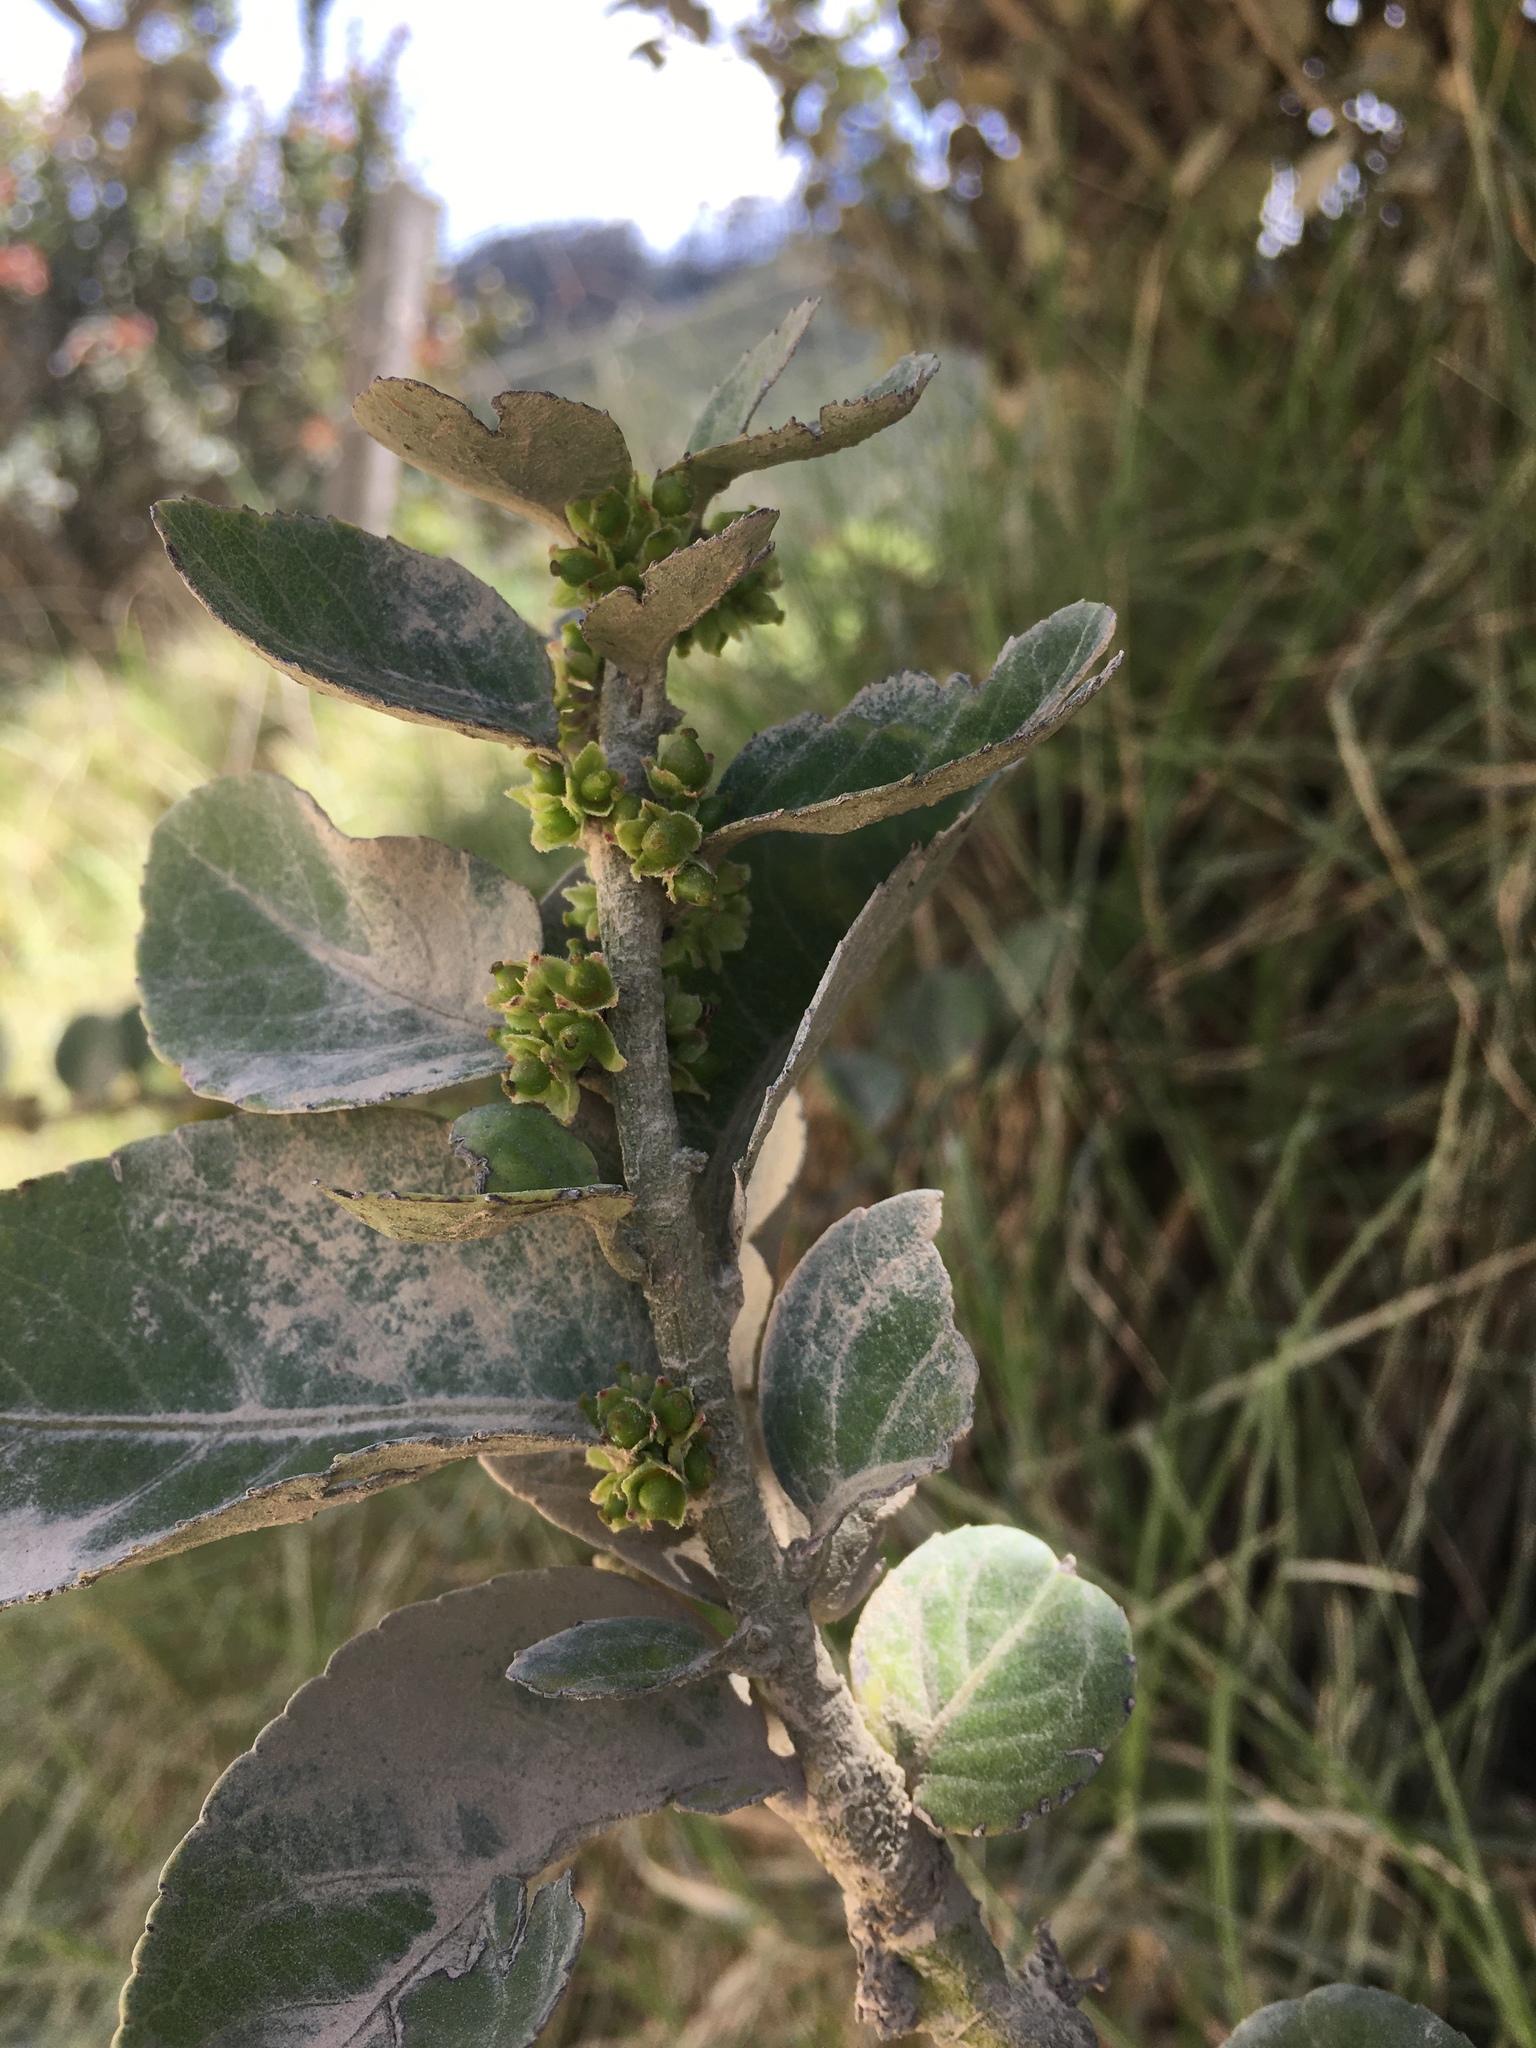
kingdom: Plantae
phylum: Tracheophyta
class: Magnoliopsida
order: Malpighiales
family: Salicaceae
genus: Xylosma
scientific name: Xylosma spiculifera
